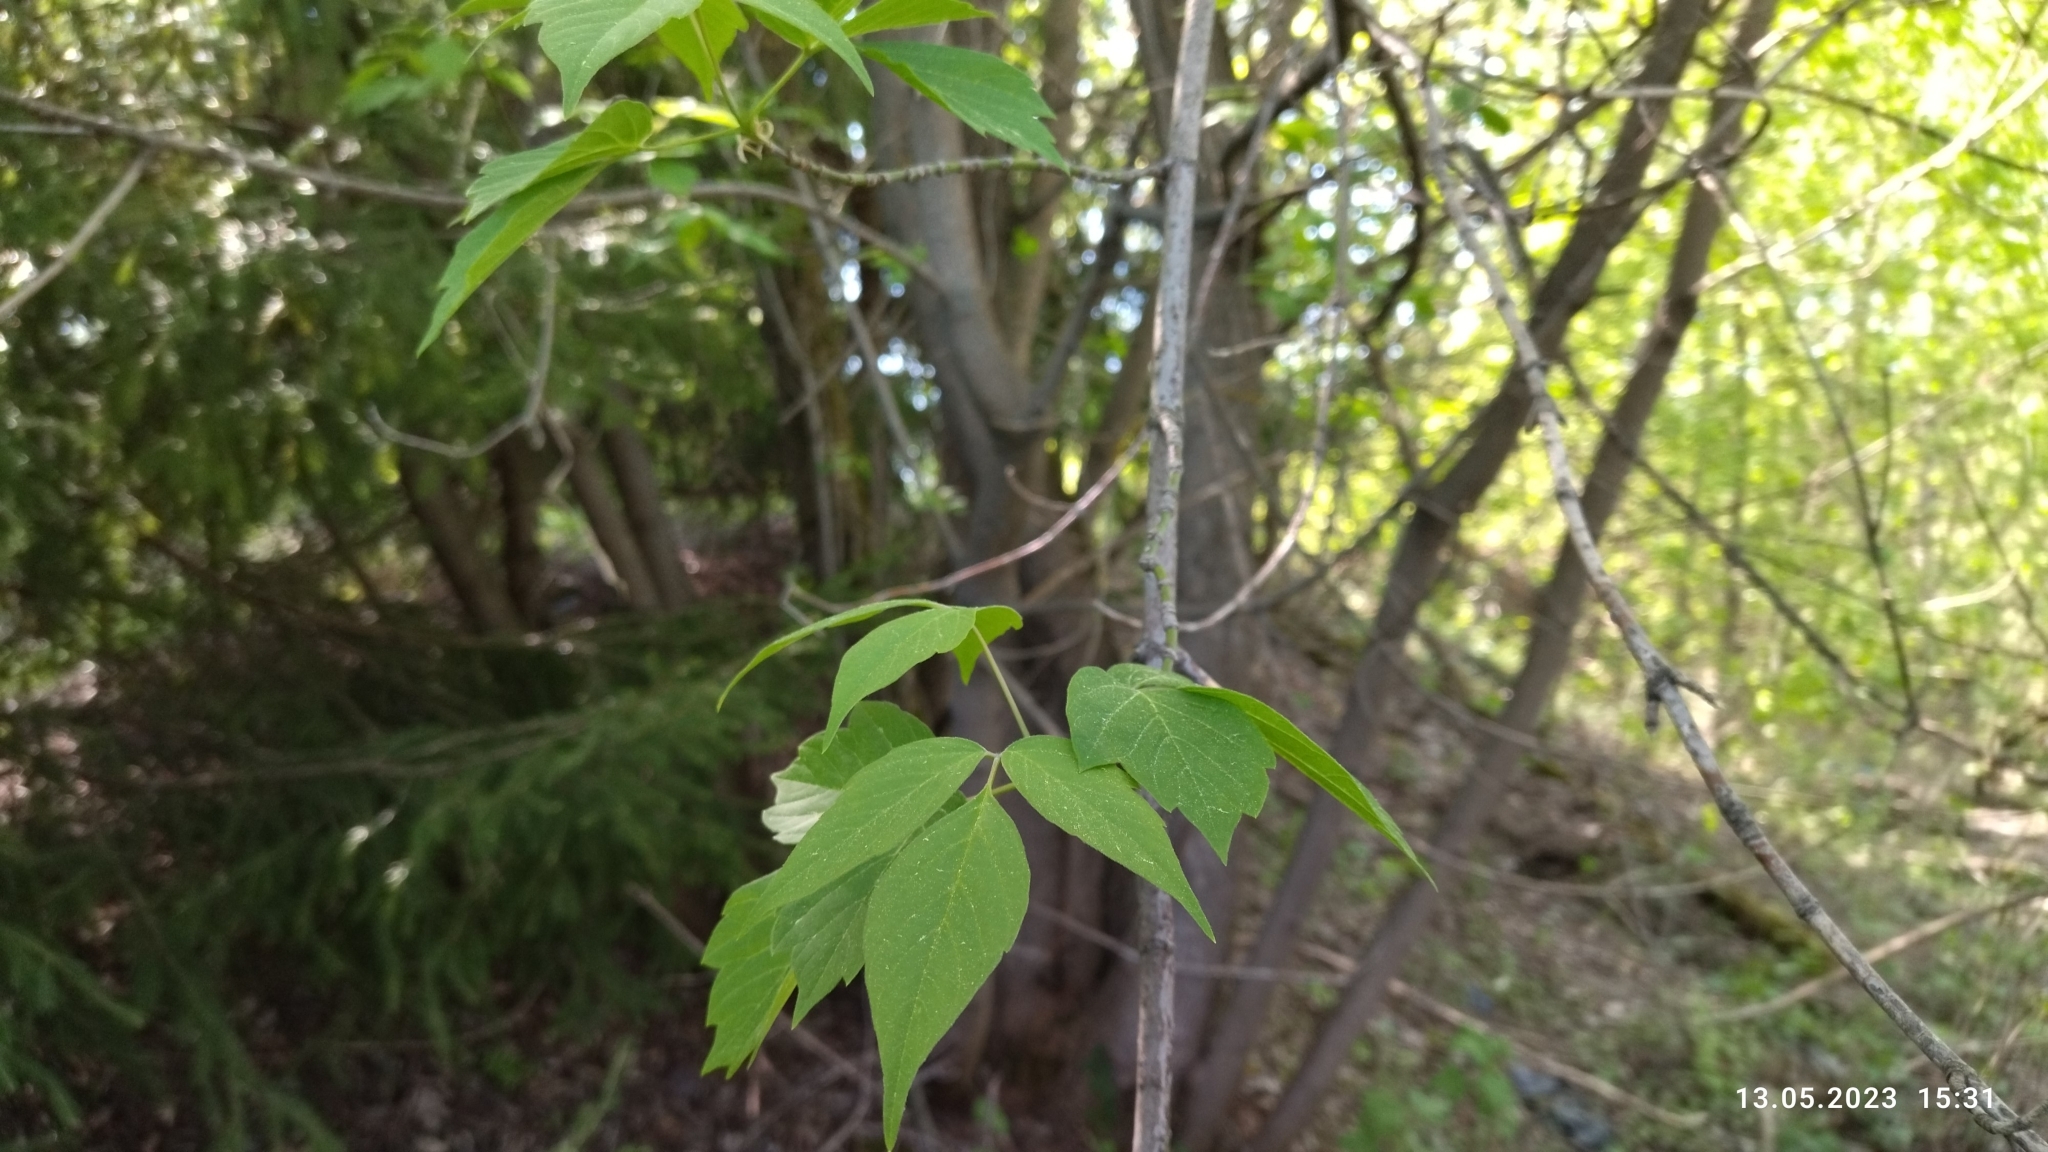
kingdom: Plantae
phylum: Tracheophyta
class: Magnoliopsida
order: Sapindales
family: Sapindaceae
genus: Acer
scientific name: Acer negundo
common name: Ashleaf maple
